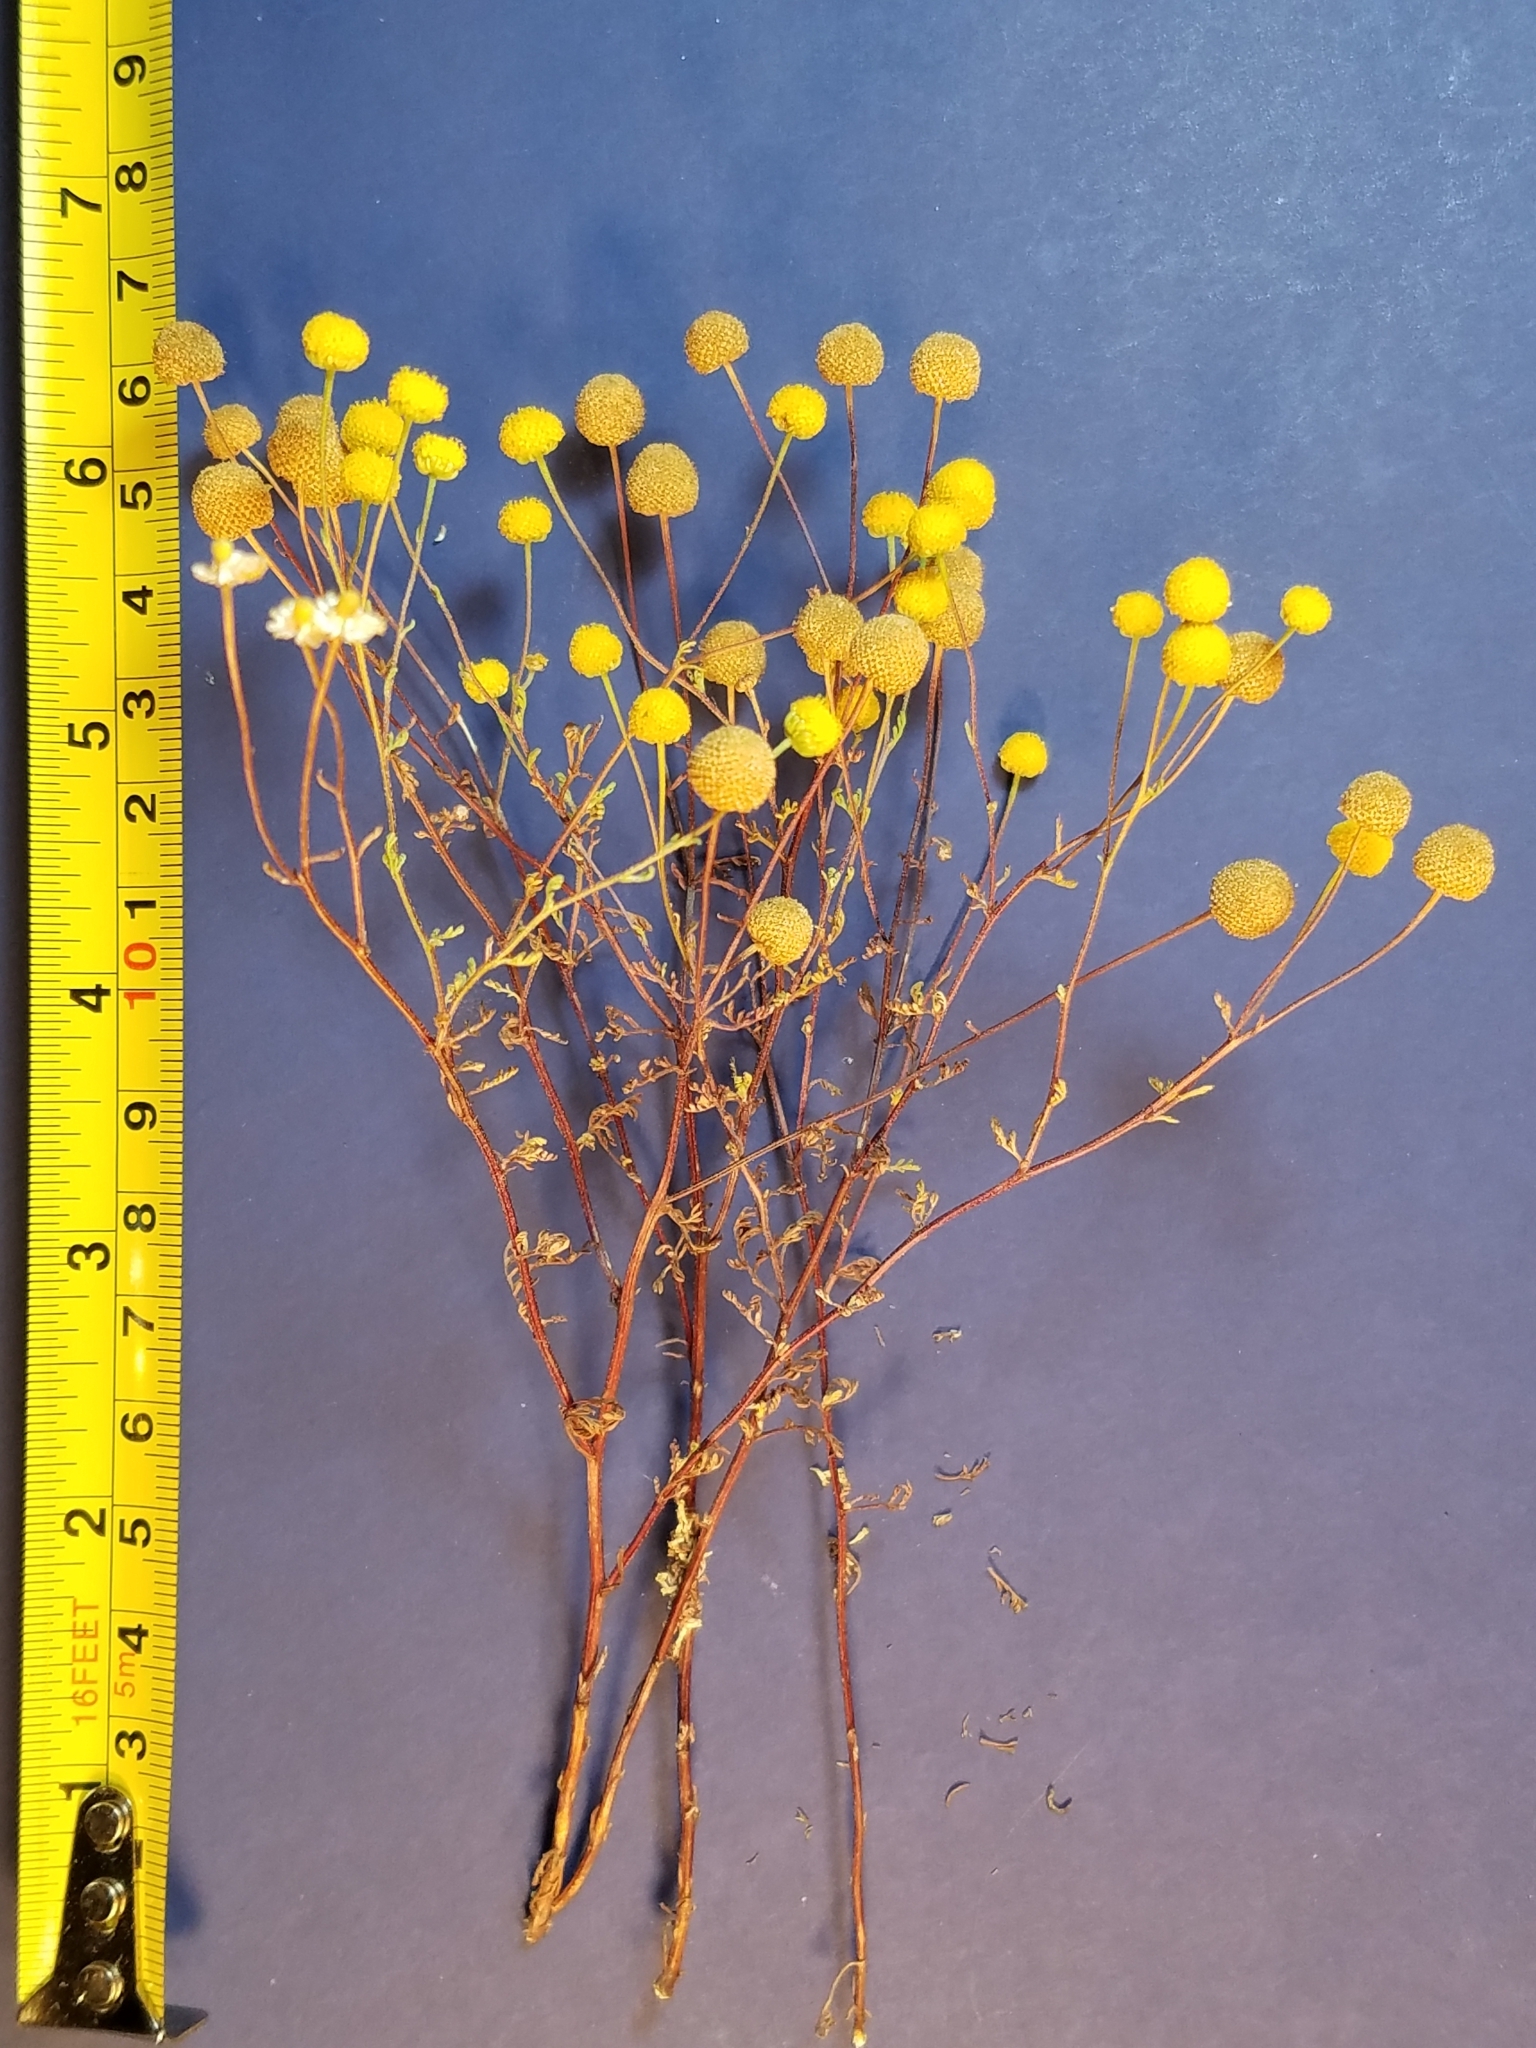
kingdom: Plantae
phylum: Tracheophyta
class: Magnoliopsida
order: Asterales
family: Asteraceae
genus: Oncosiphon
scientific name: Oncosiphon pilulifer
